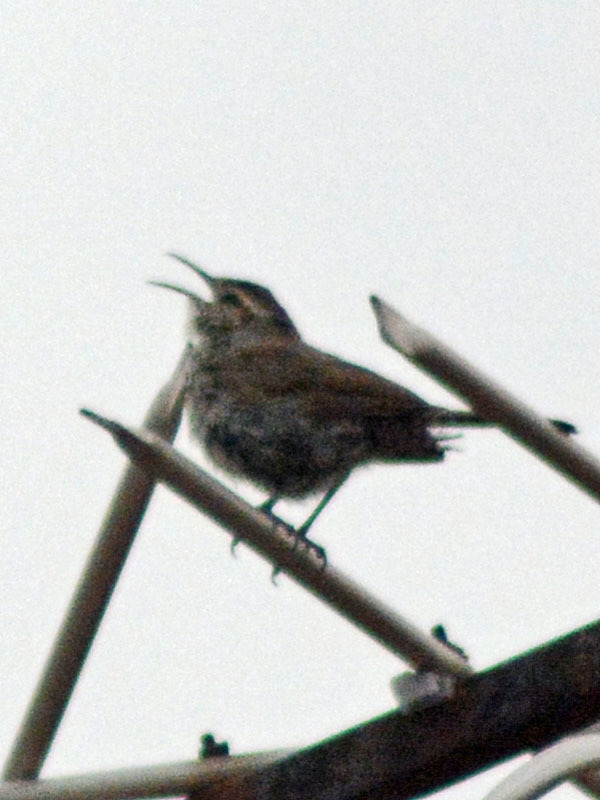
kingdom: Animalia
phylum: Chordata
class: Aves
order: Passeriformes
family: Troglodytidae
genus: Thryomanes
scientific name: Thryomanes bewickii
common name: Bewick's wren
